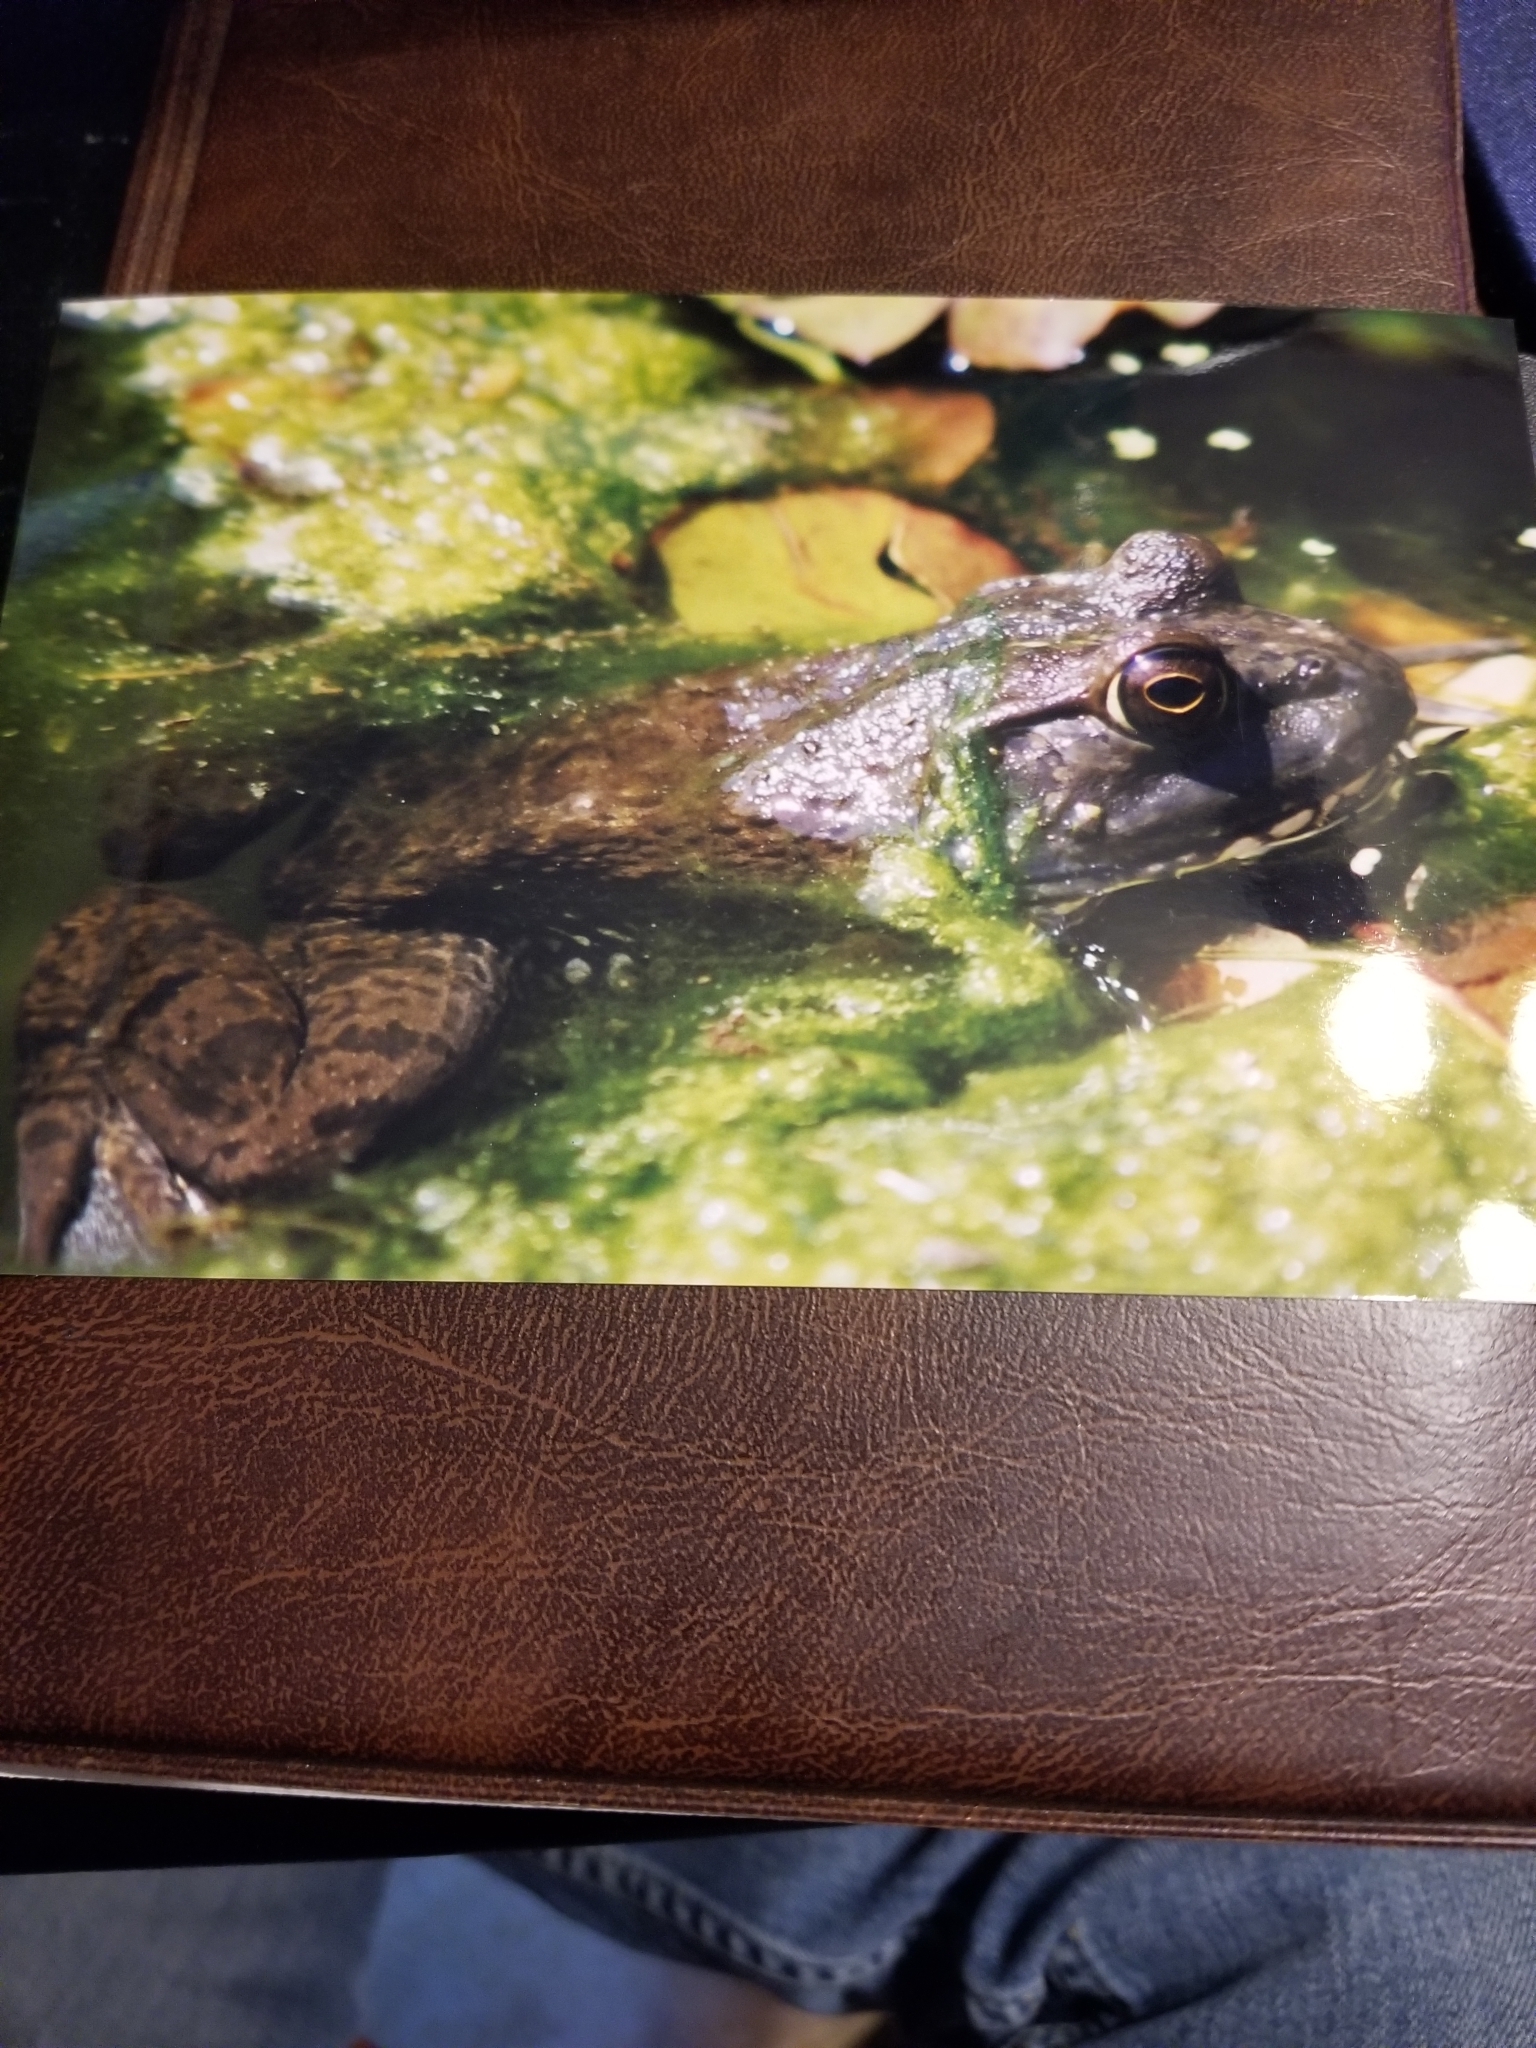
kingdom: Animalia
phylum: Chordata
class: Amphibia
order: Anura
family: Ranidae
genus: Lithobates
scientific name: Lithobates catesbeianus
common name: American bullfrog
